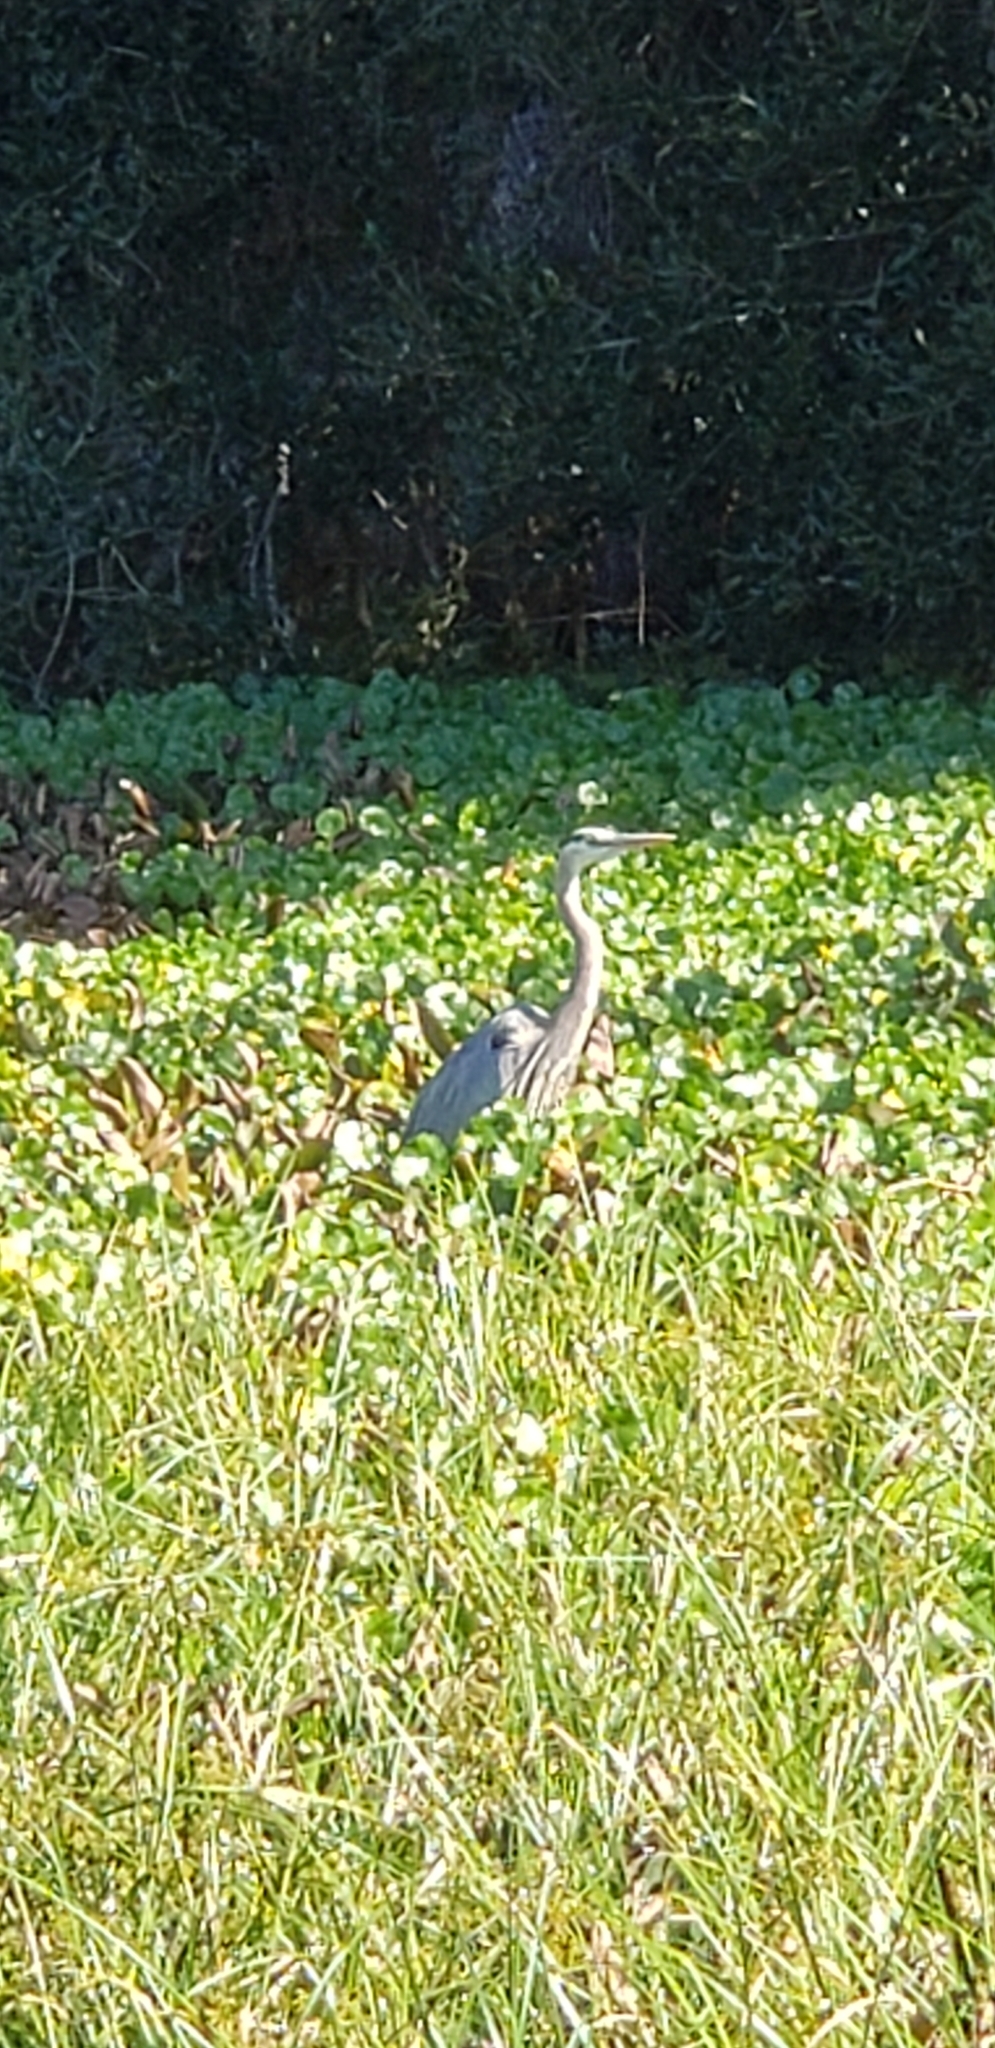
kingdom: Animalia
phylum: Chordata
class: Aves
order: Pelecaniformes
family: Ardeidae
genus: Ardea
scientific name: Ardea herodias
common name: Great blue heron
